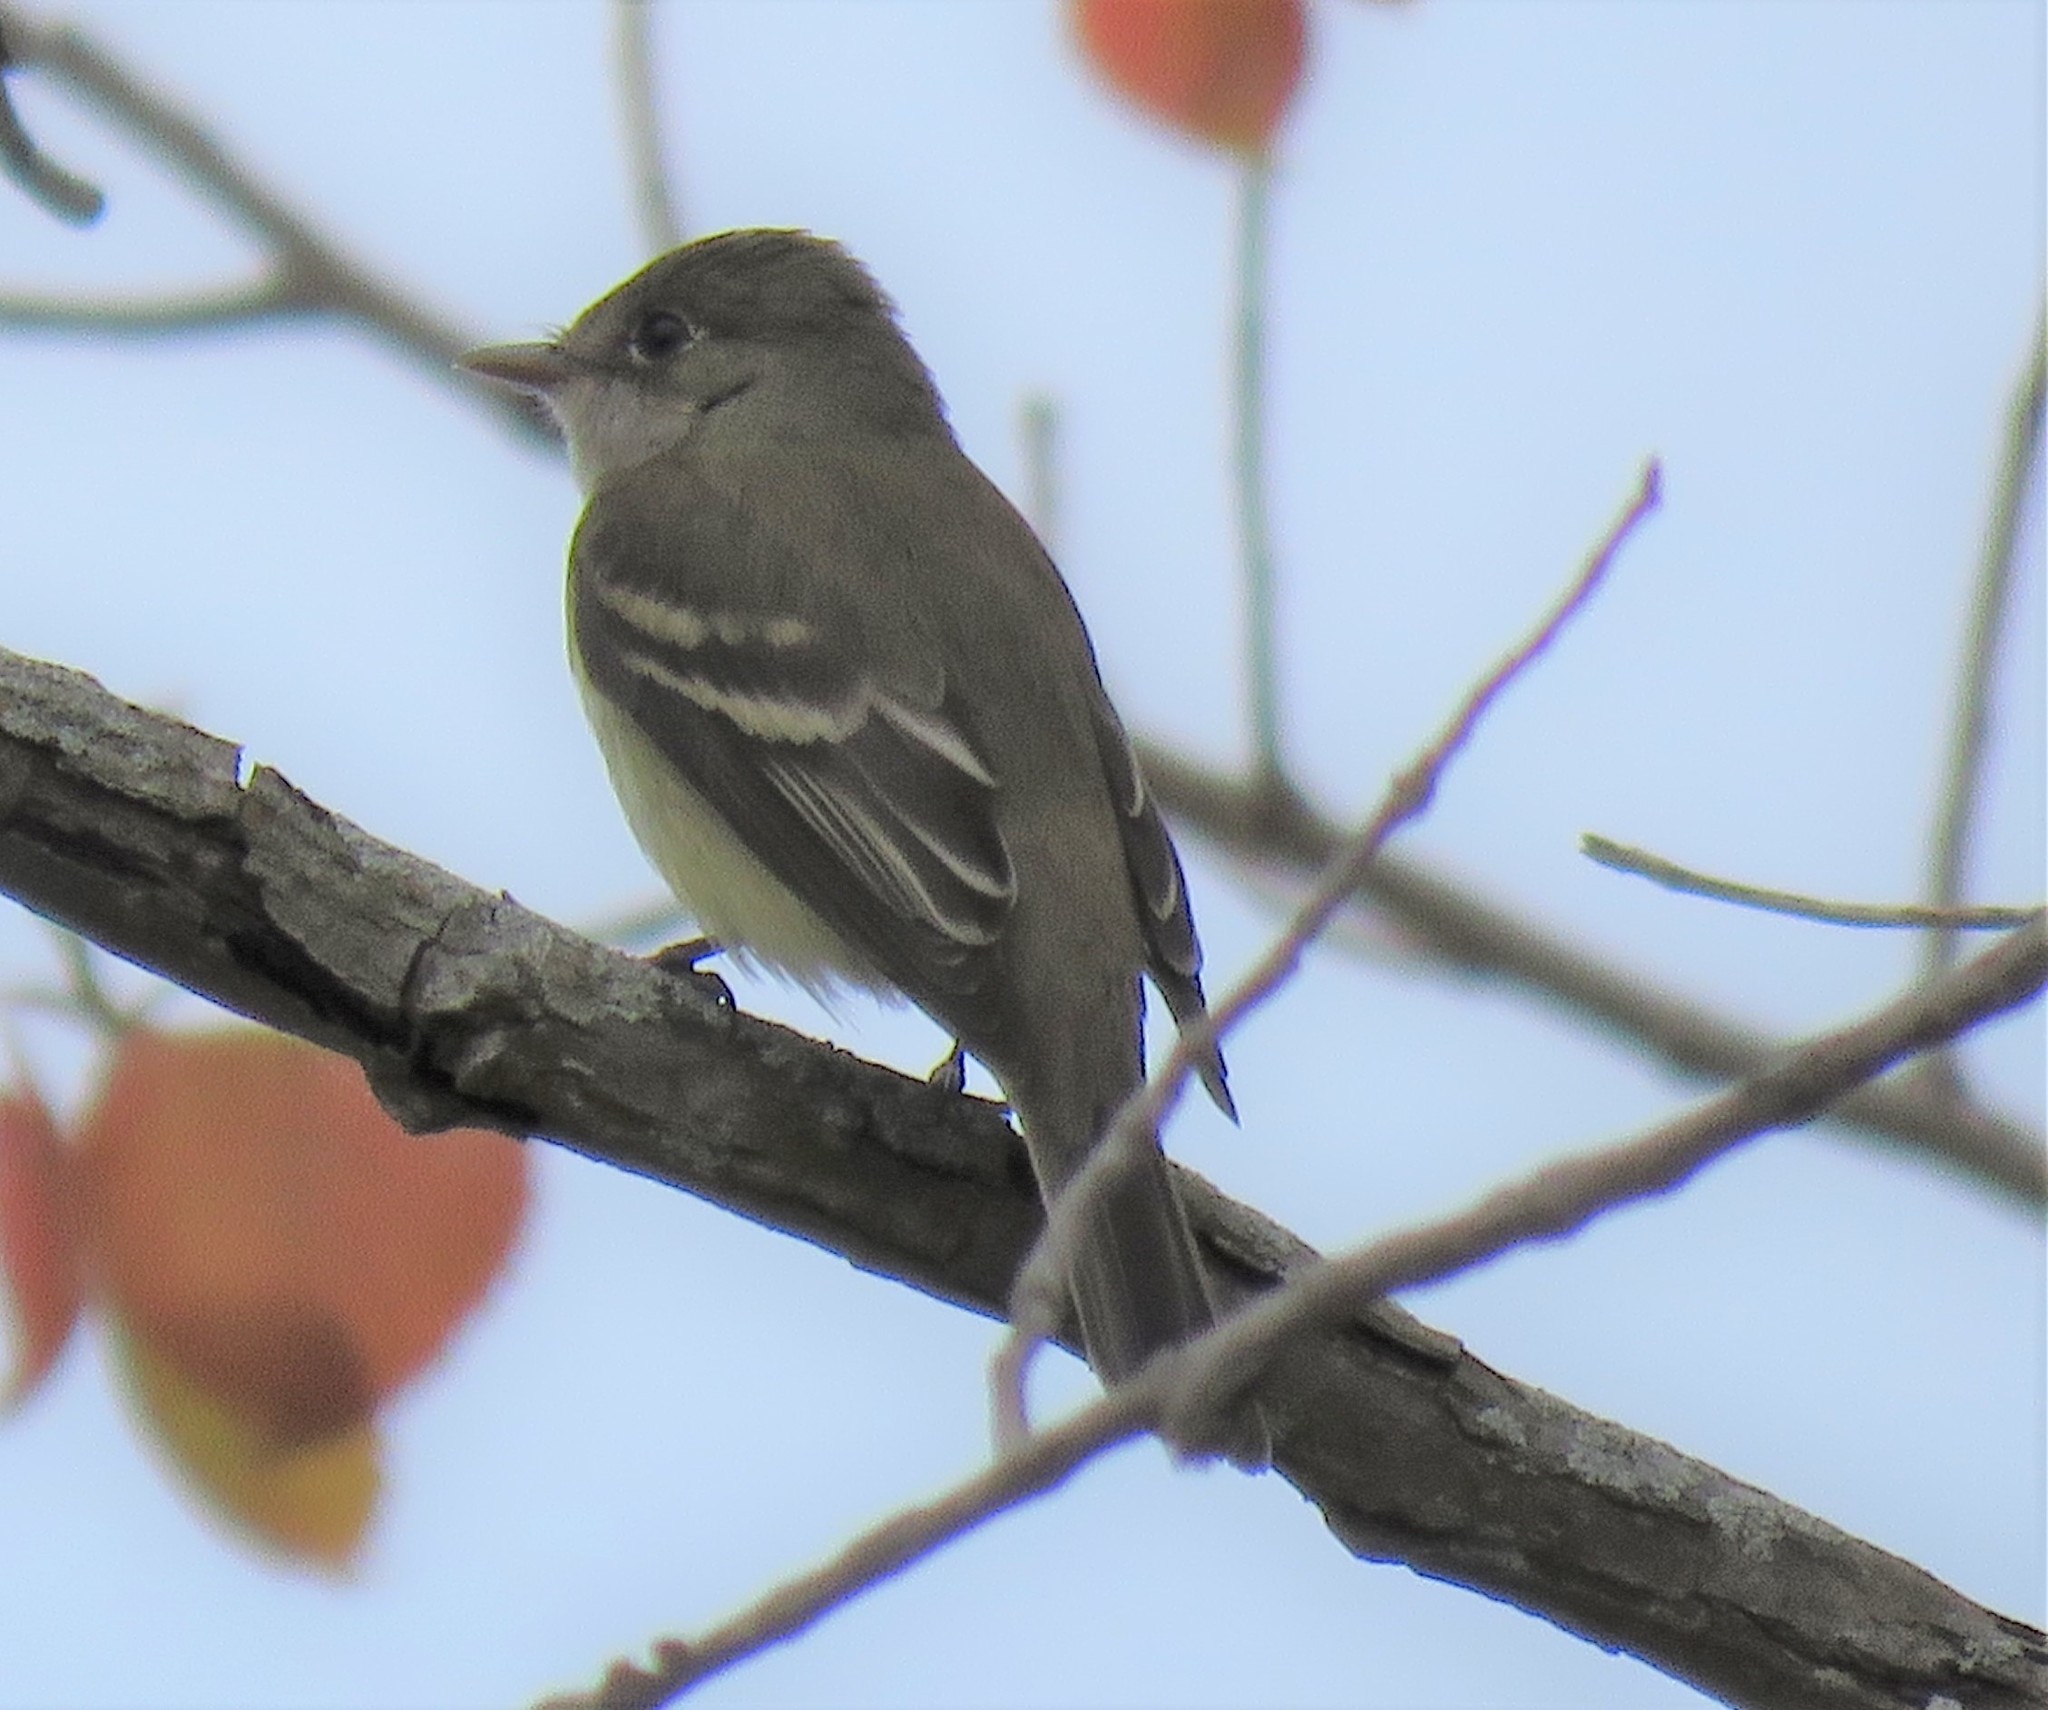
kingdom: Animalia
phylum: Chordata
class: Aves
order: Passeriformes
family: Tyrannidae
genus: Empidonax
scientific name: Empidonax minimus
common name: Least flycatcher
